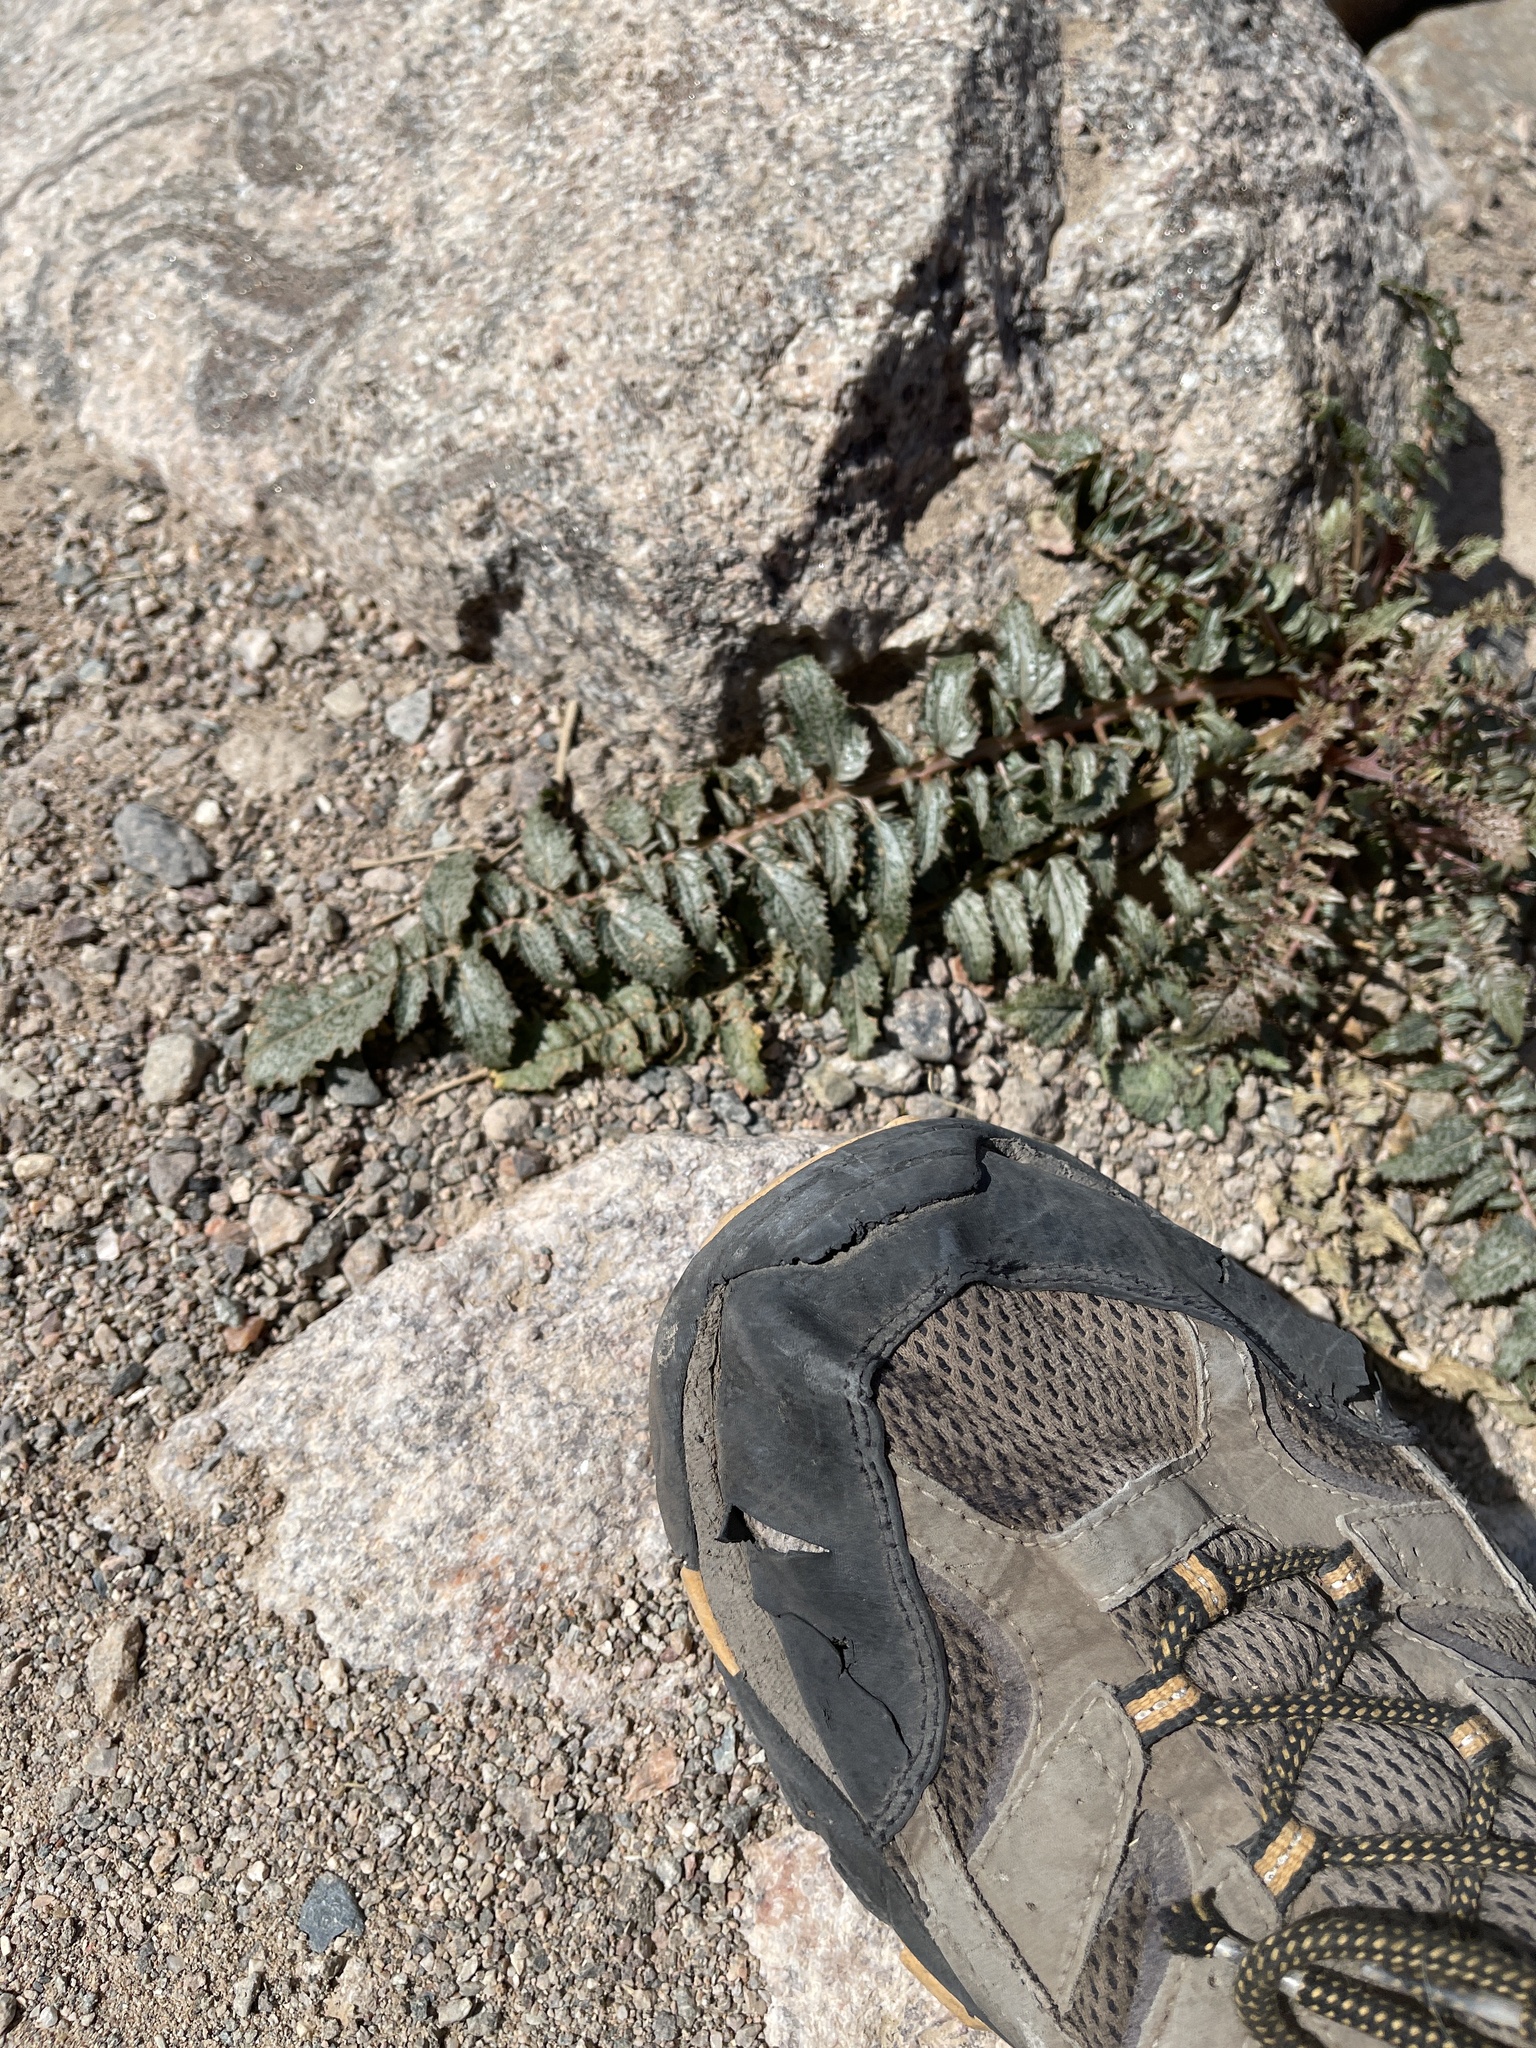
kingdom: Plantae
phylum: Tracheophyta
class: Magnoliopsida
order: Myrtales
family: Onagraceae
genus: Chylismia
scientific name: Chylismia multijuga
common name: Froststem suncup
